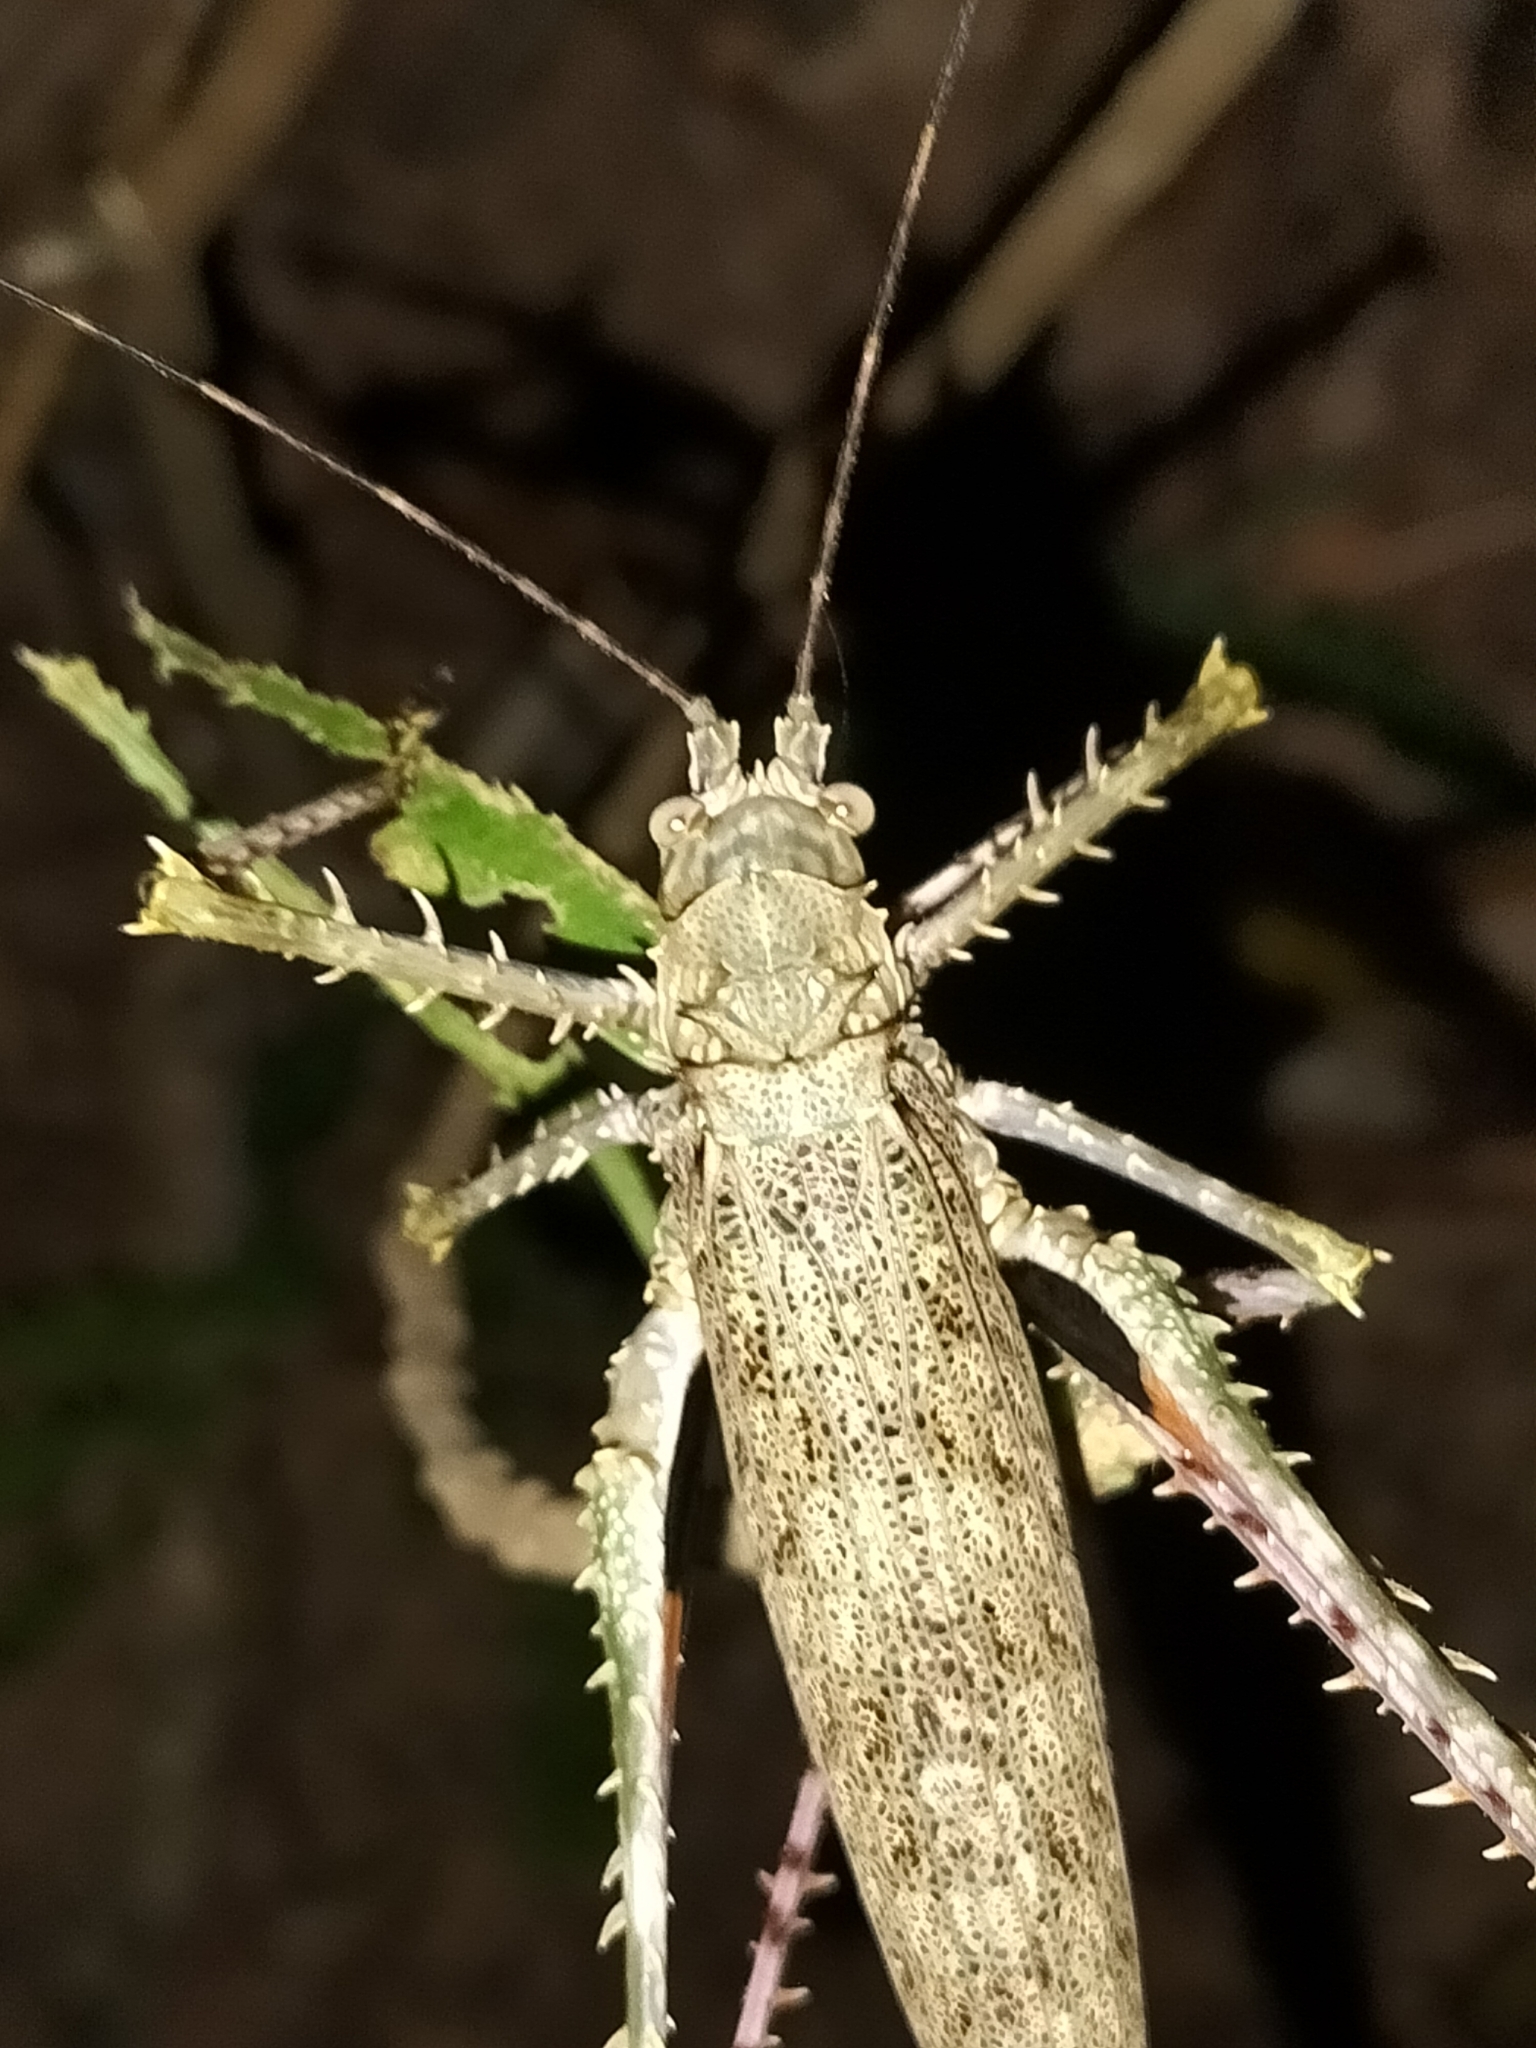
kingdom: Animalia
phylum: Arthropoda
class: Insecta
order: Orthoptera
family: Tettigoniidae
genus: Phricta
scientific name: Phricta spinosa
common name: Giant spiny forest katydid
